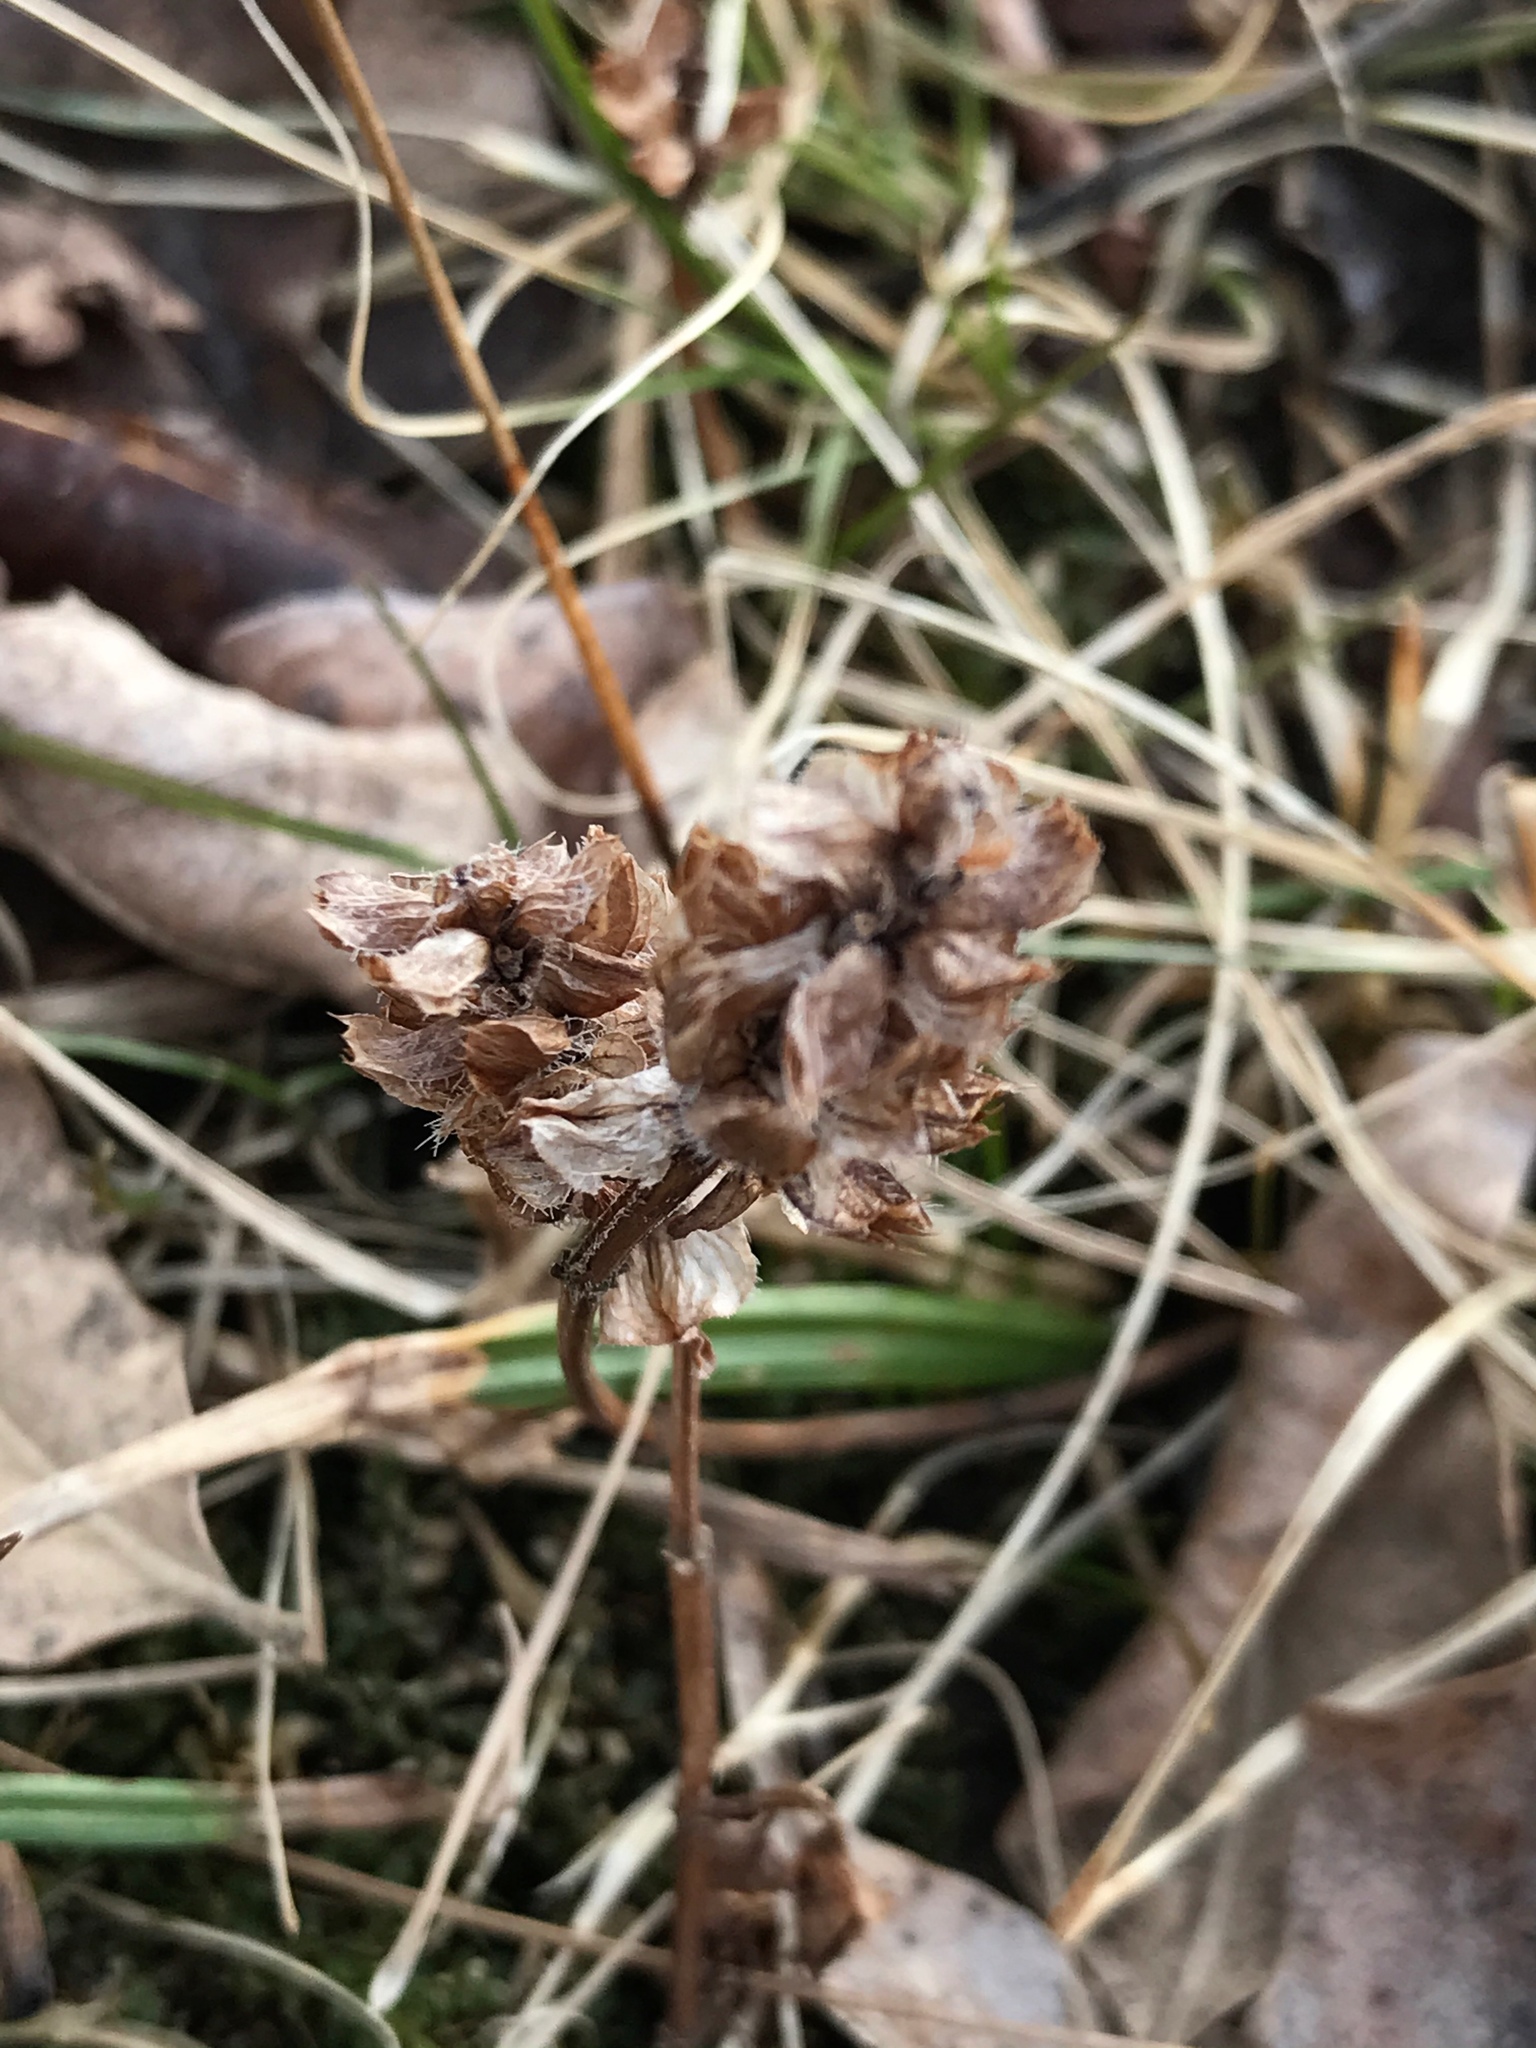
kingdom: Plantae
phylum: Tracheophyta
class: Magnoliopsida
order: Lamiales
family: Lamiaceae
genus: Prunella
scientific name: Prunella vulgaris
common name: Heal-all
